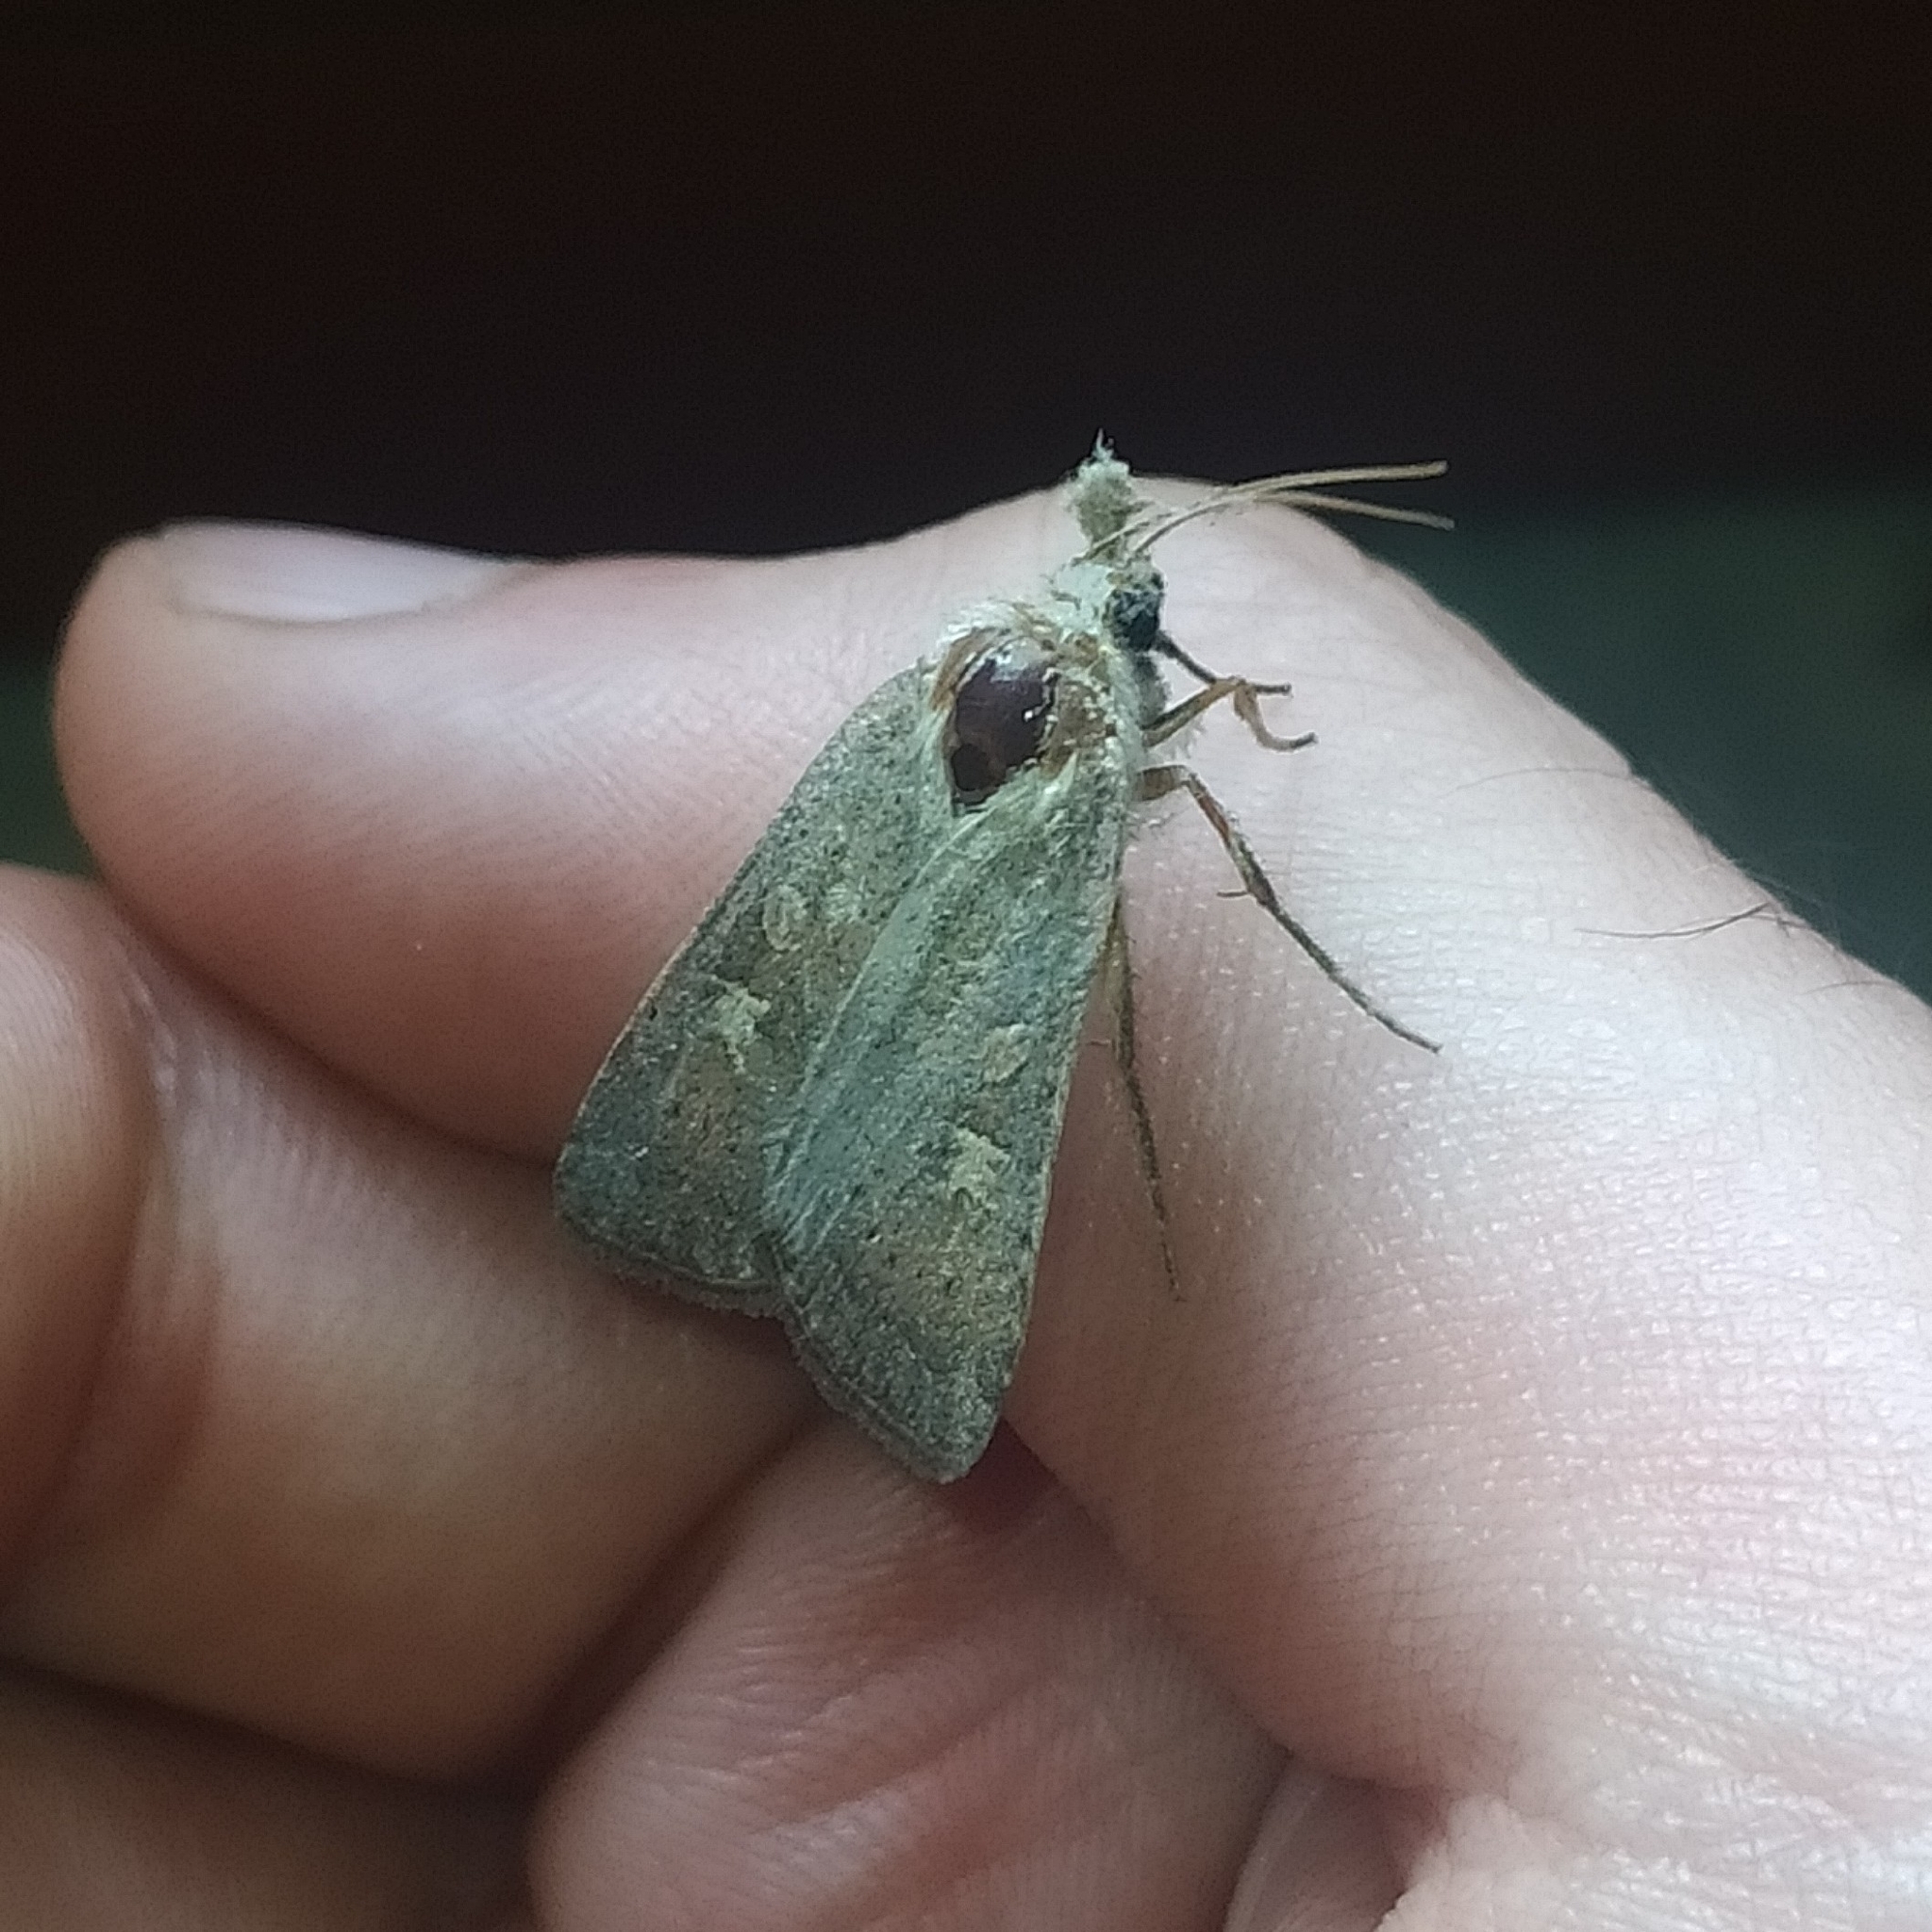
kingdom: Animalia
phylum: Arthropoda
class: Insecta
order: Lepidoptera
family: Noctuidae
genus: Xestia
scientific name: Xestia xanthographa
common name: Square-spot rustic
